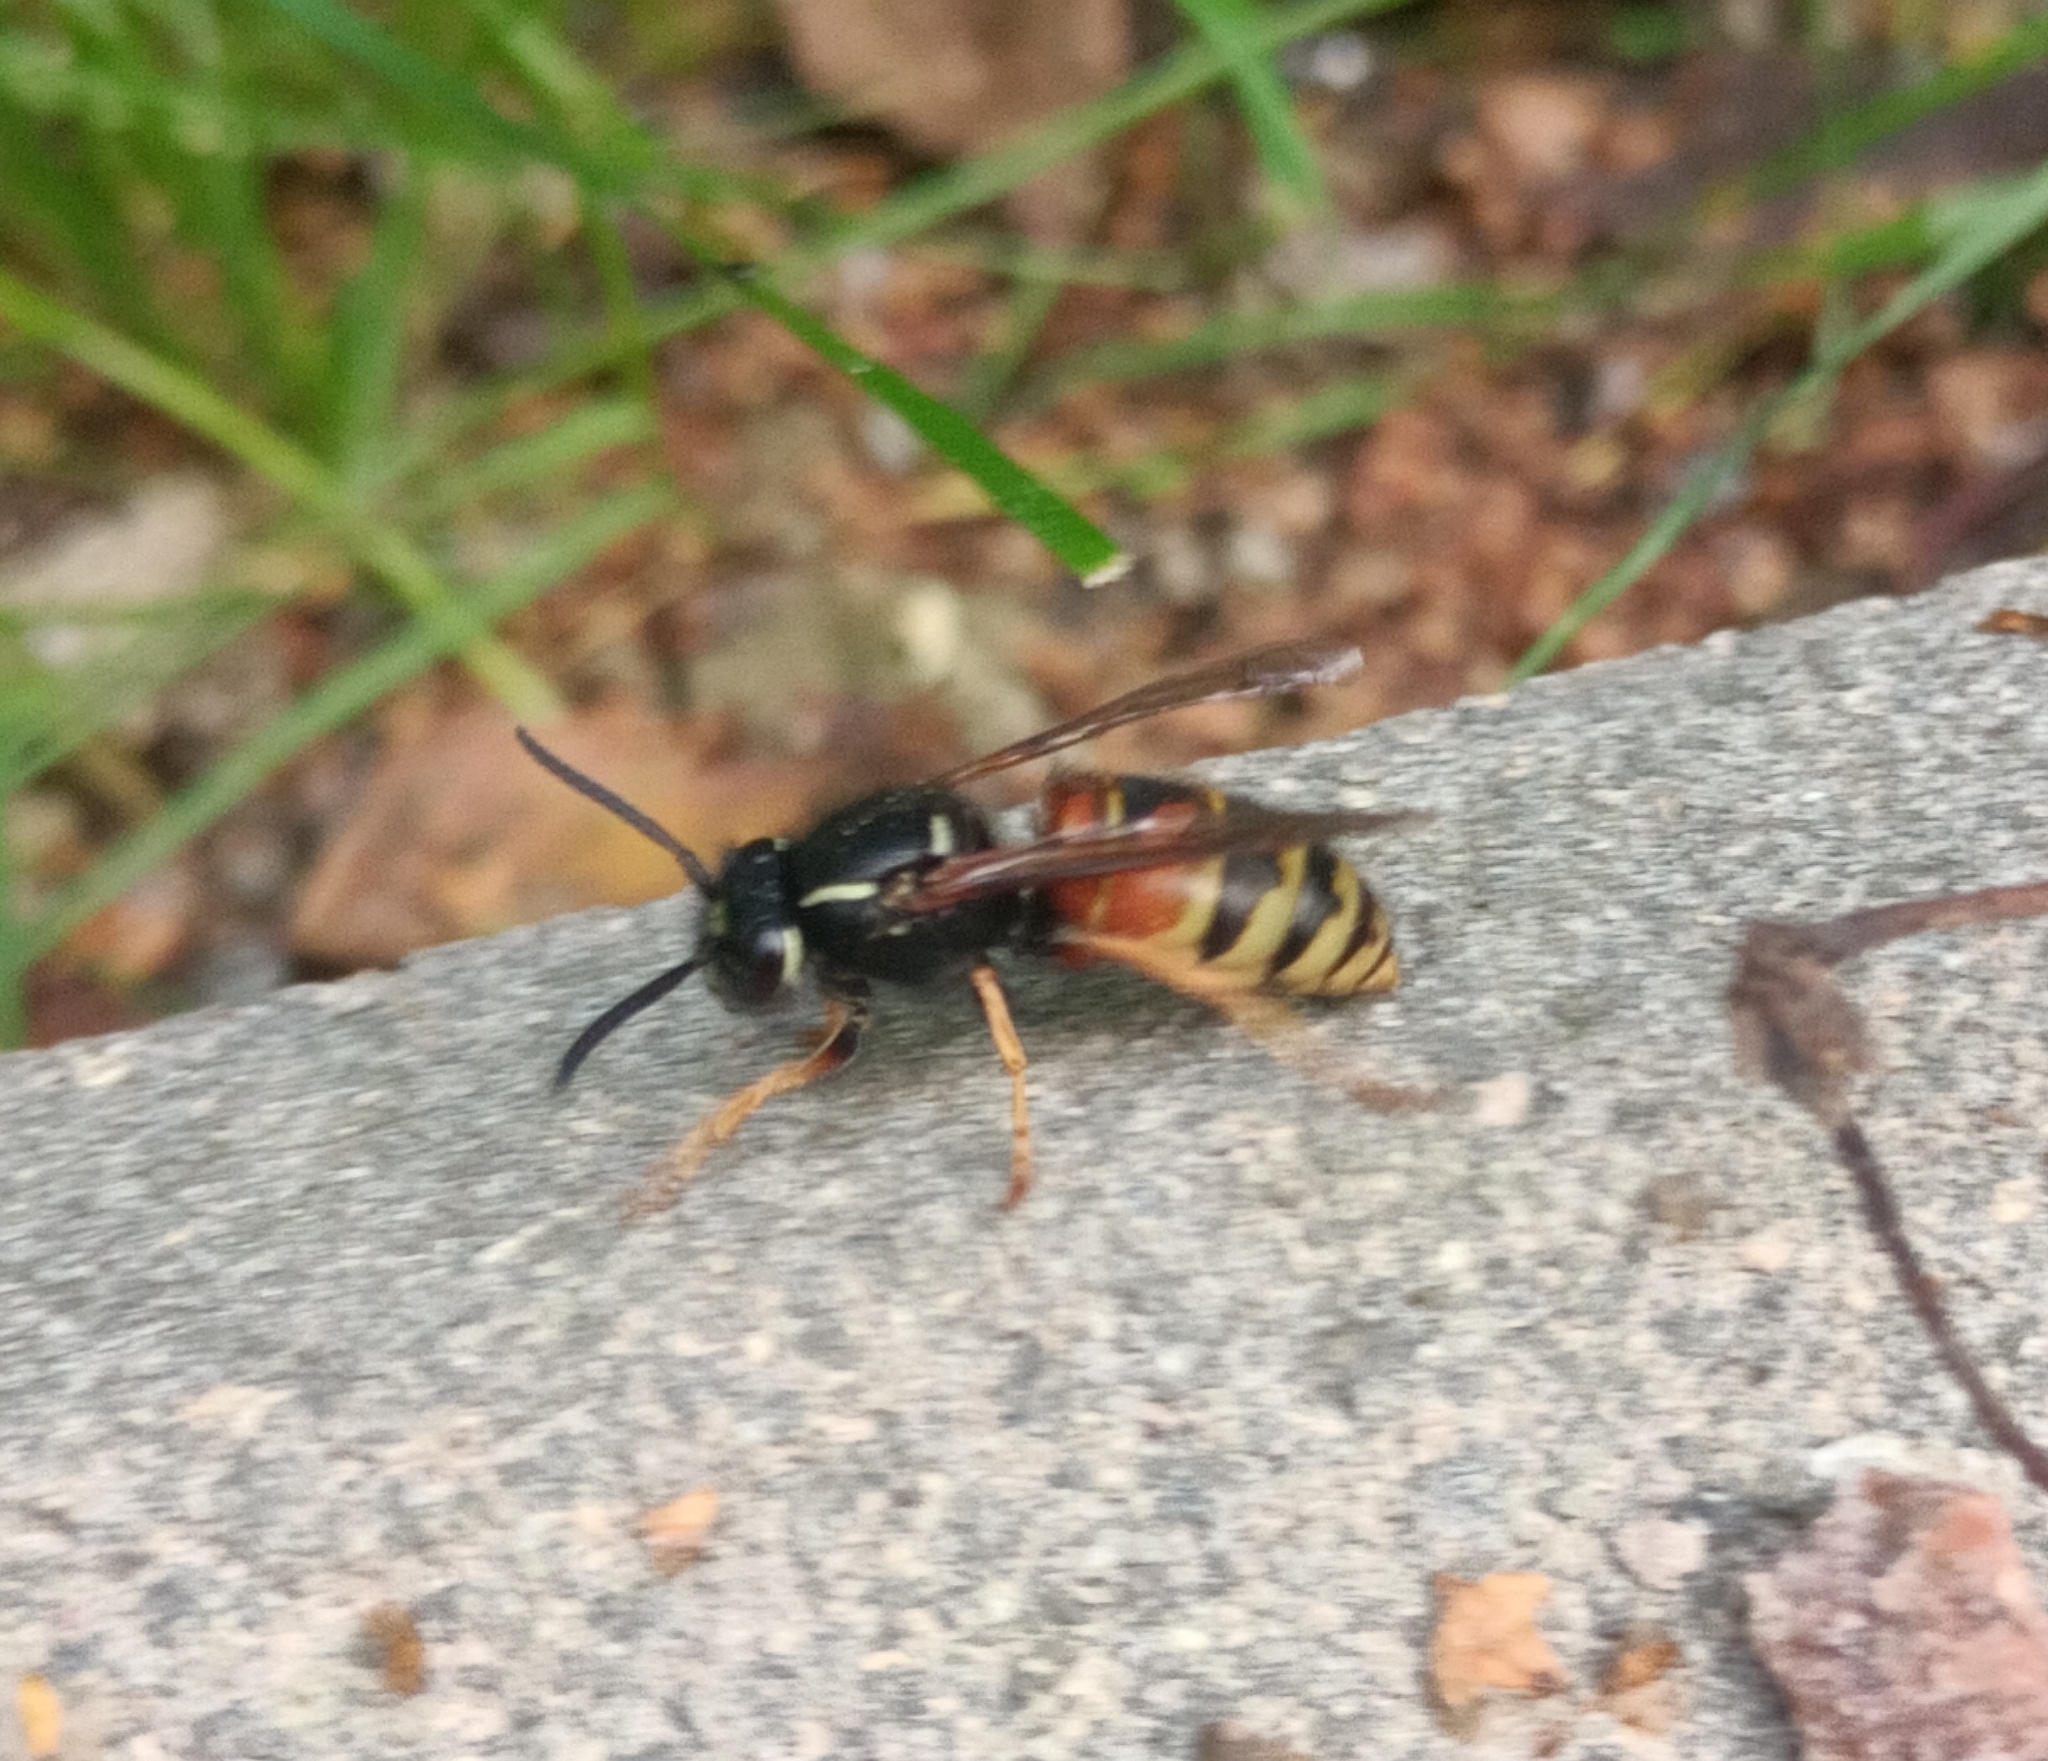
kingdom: Animalia
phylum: Arthropoda
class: Insecta
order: Hymenoptera
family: Vespidae
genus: Vespula
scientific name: Vespula rufa
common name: Red wasp
